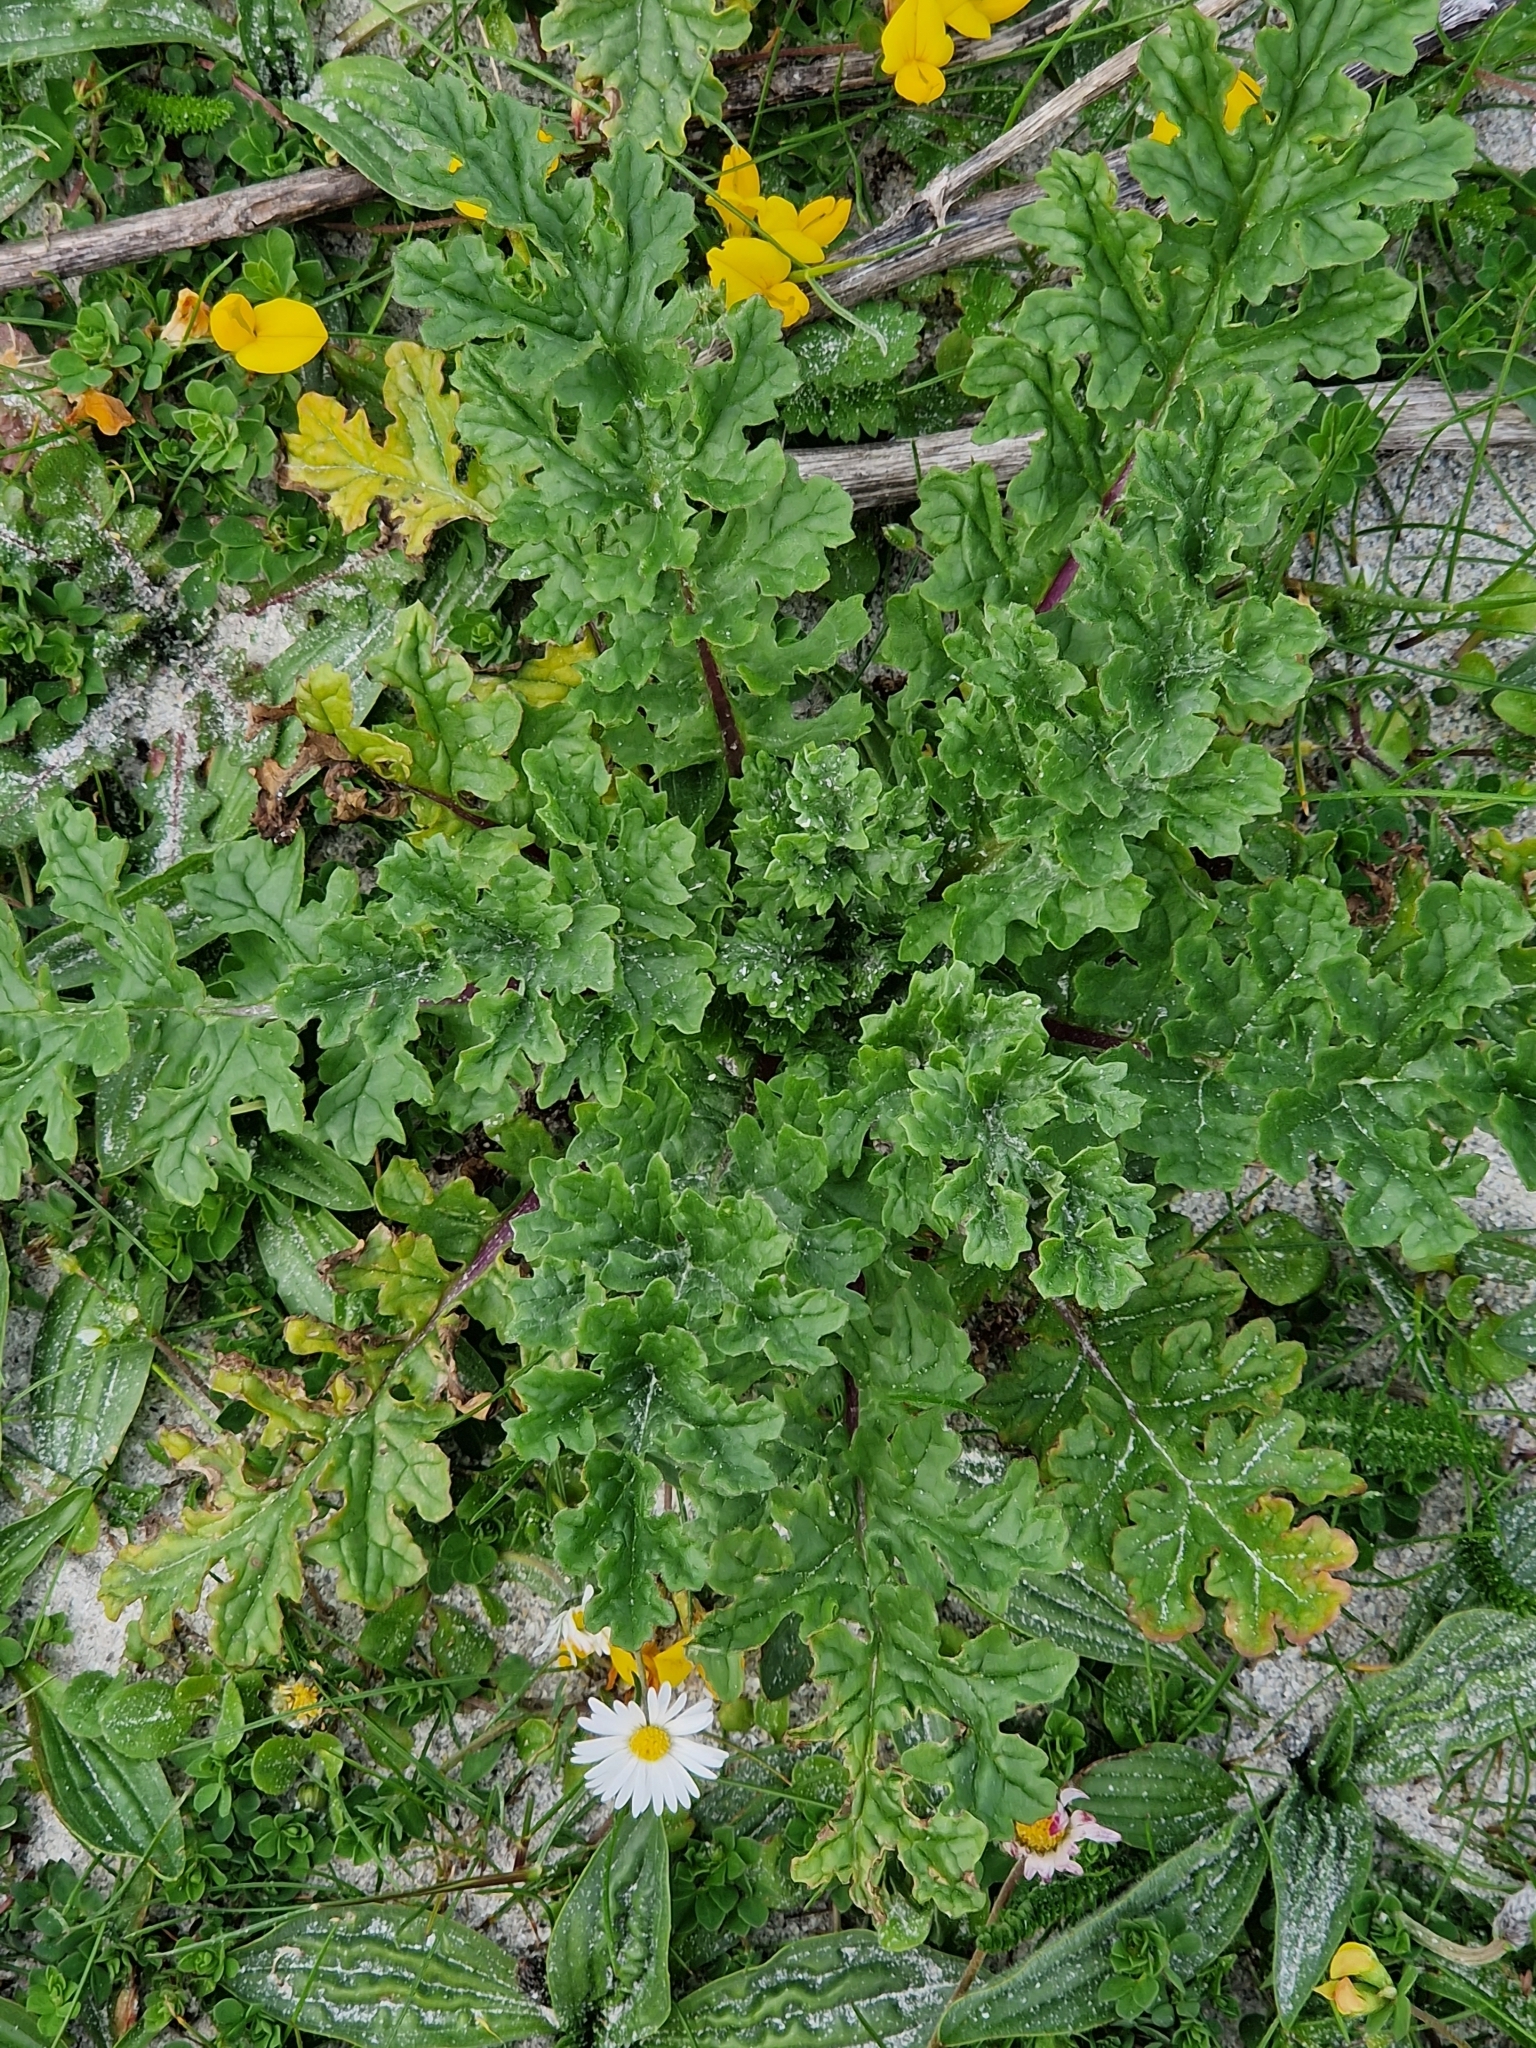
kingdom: Plantae
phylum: Tracheophyta
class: Magnoliopsida
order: Asterales
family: Asteraceae
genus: Jacobaea
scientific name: Jacobaea vulgaris
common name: Stinking willie
